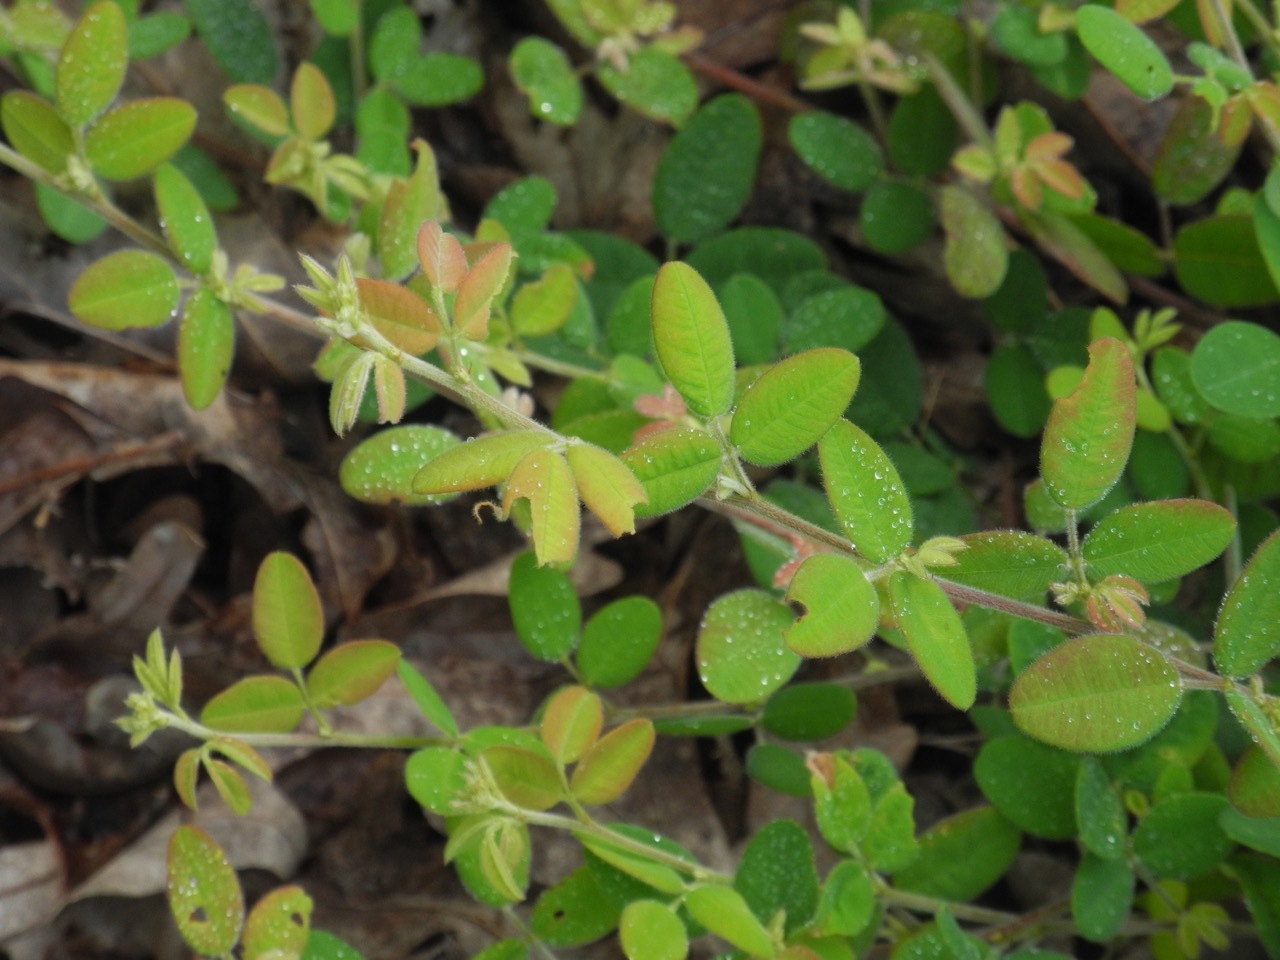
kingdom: Plantae
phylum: Tracheophyta
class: Magnoliopsida
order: Fabales
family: Fabaceae
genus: Lespedeza
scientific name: Lespedeza procumbens
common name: Downy trailing bush-clover
